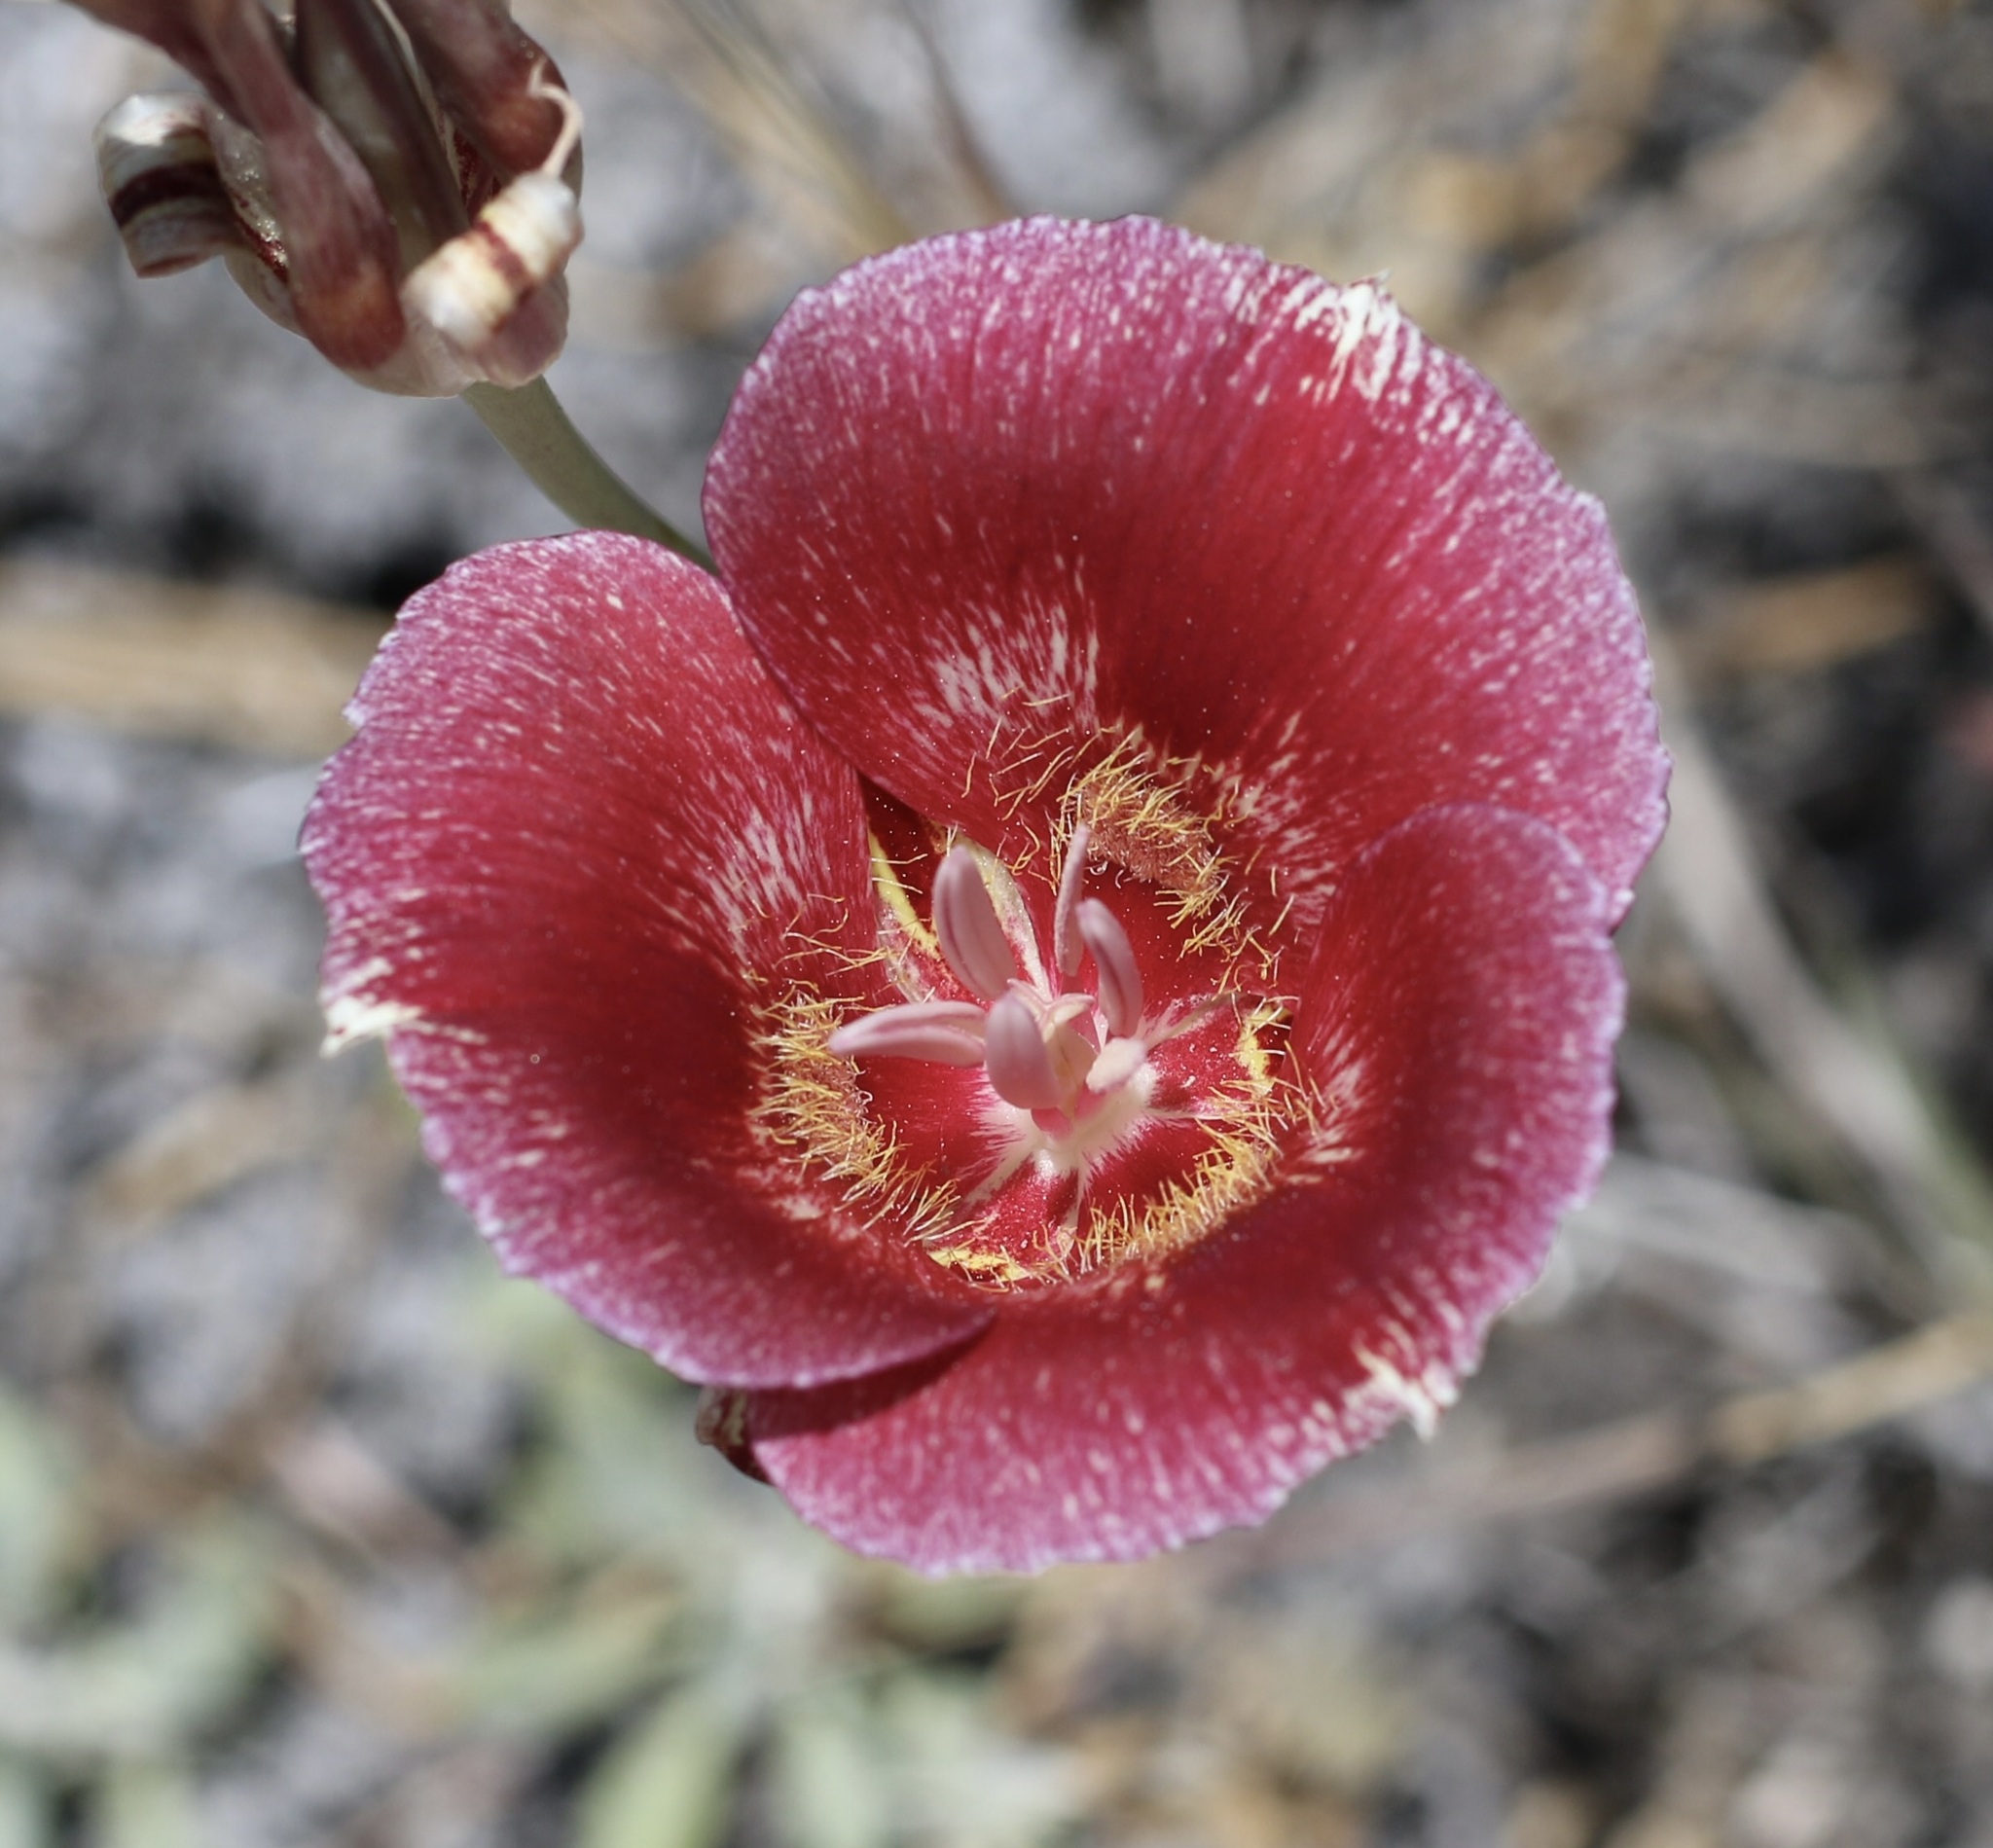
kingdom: Plantae
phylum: Tracheophyta
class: Liliopsida
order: Liliales
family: Liliaceae
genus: Calochortus
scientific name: Calochortus venustus
